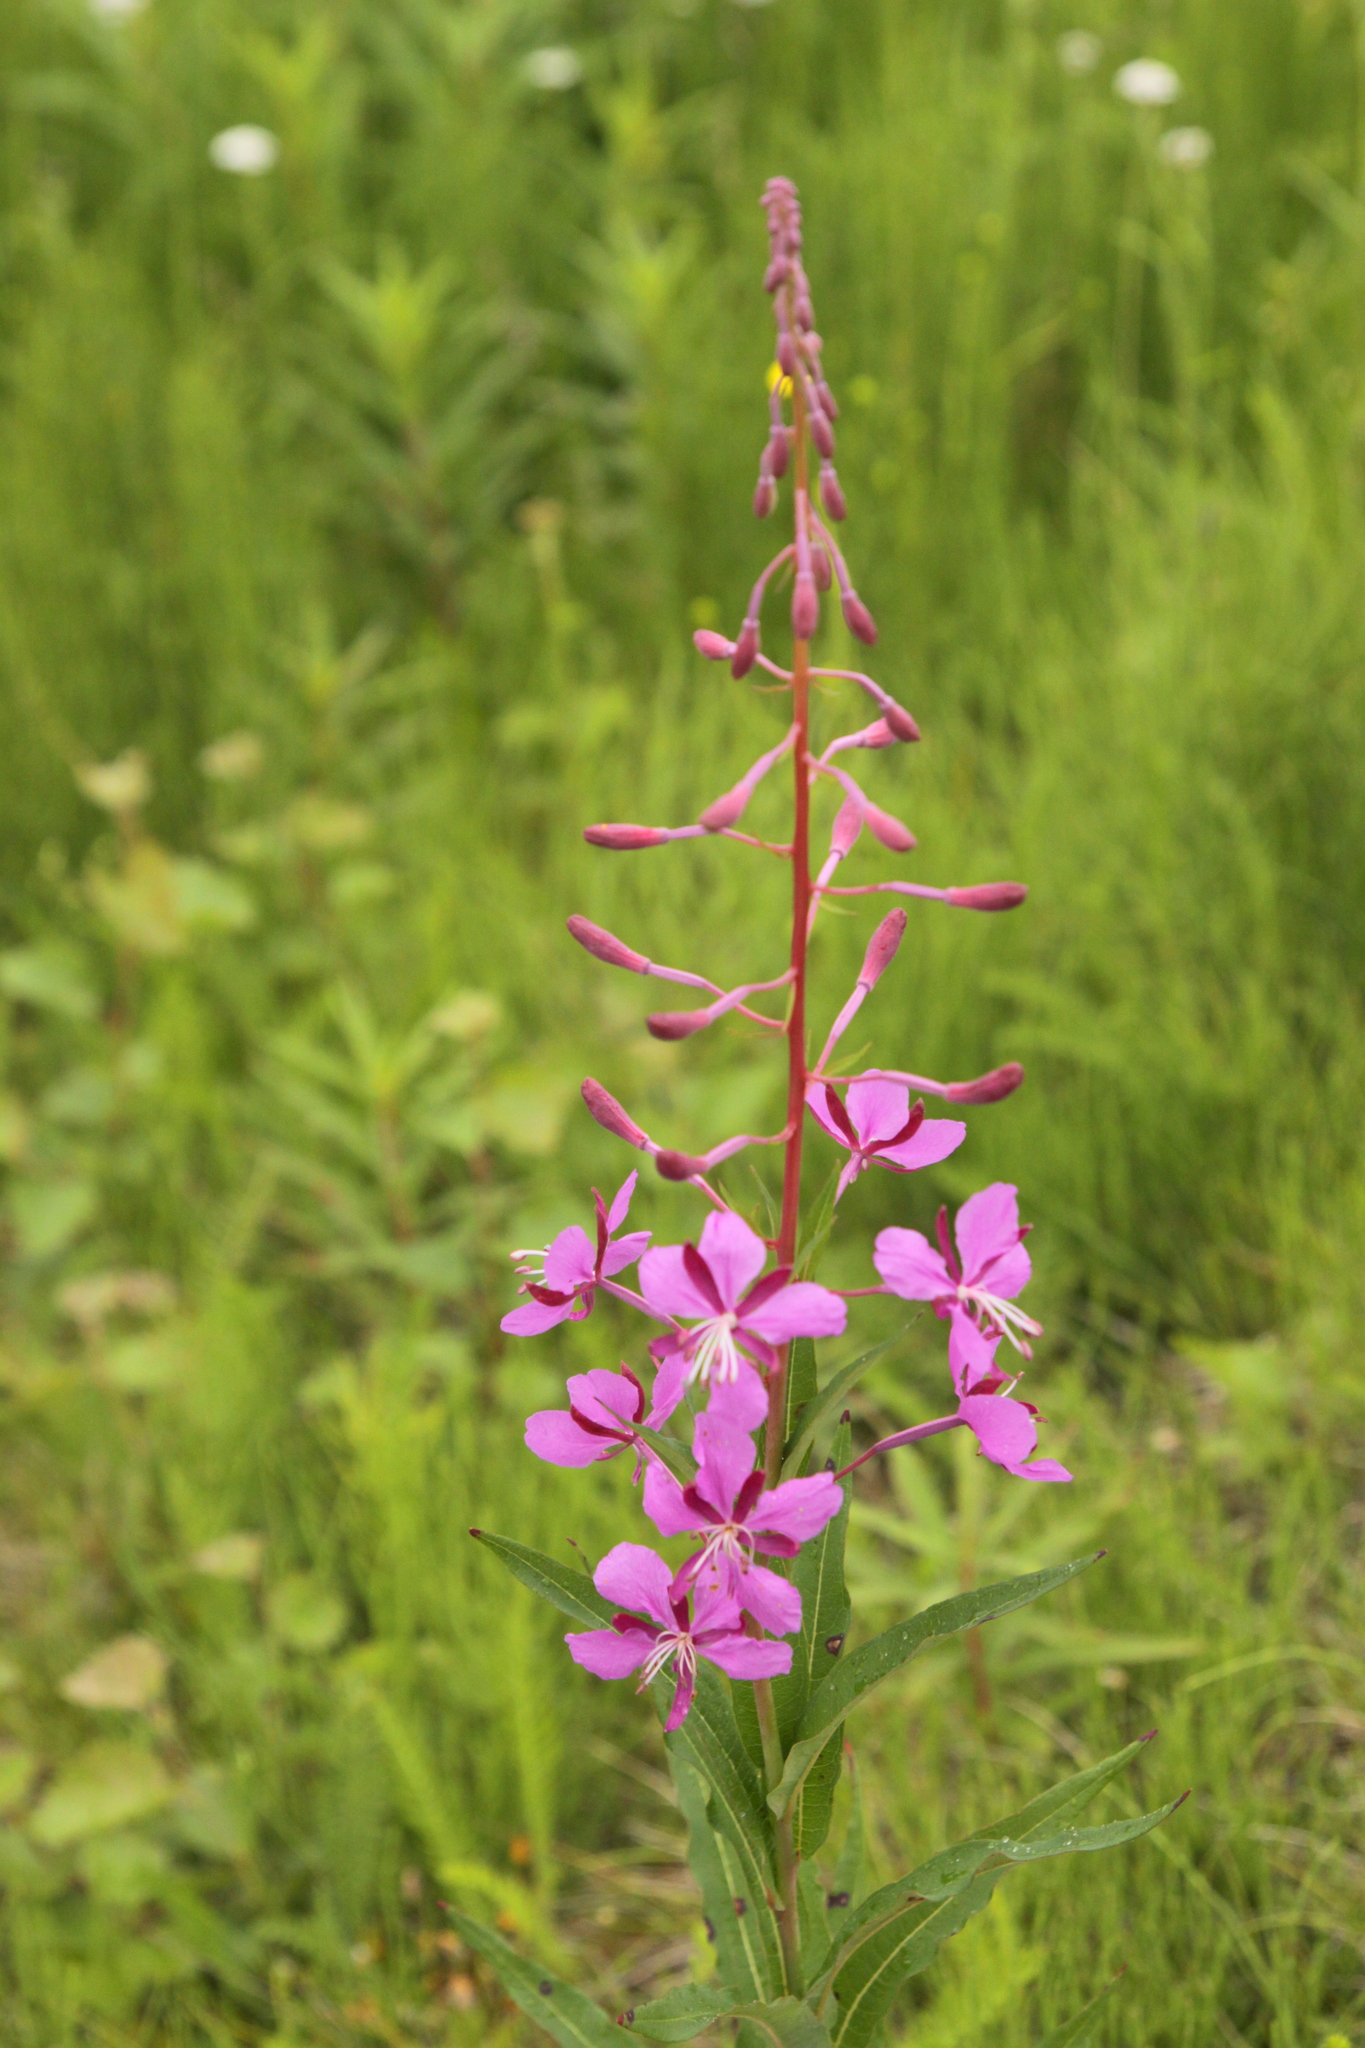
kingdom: Plantae
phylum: Tracheophyta
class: Magnoliopsida
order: Myrtales
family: Onagraceae
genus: Chamaenerion
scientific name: Chamaenerion angustifolium
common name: Fireweed
